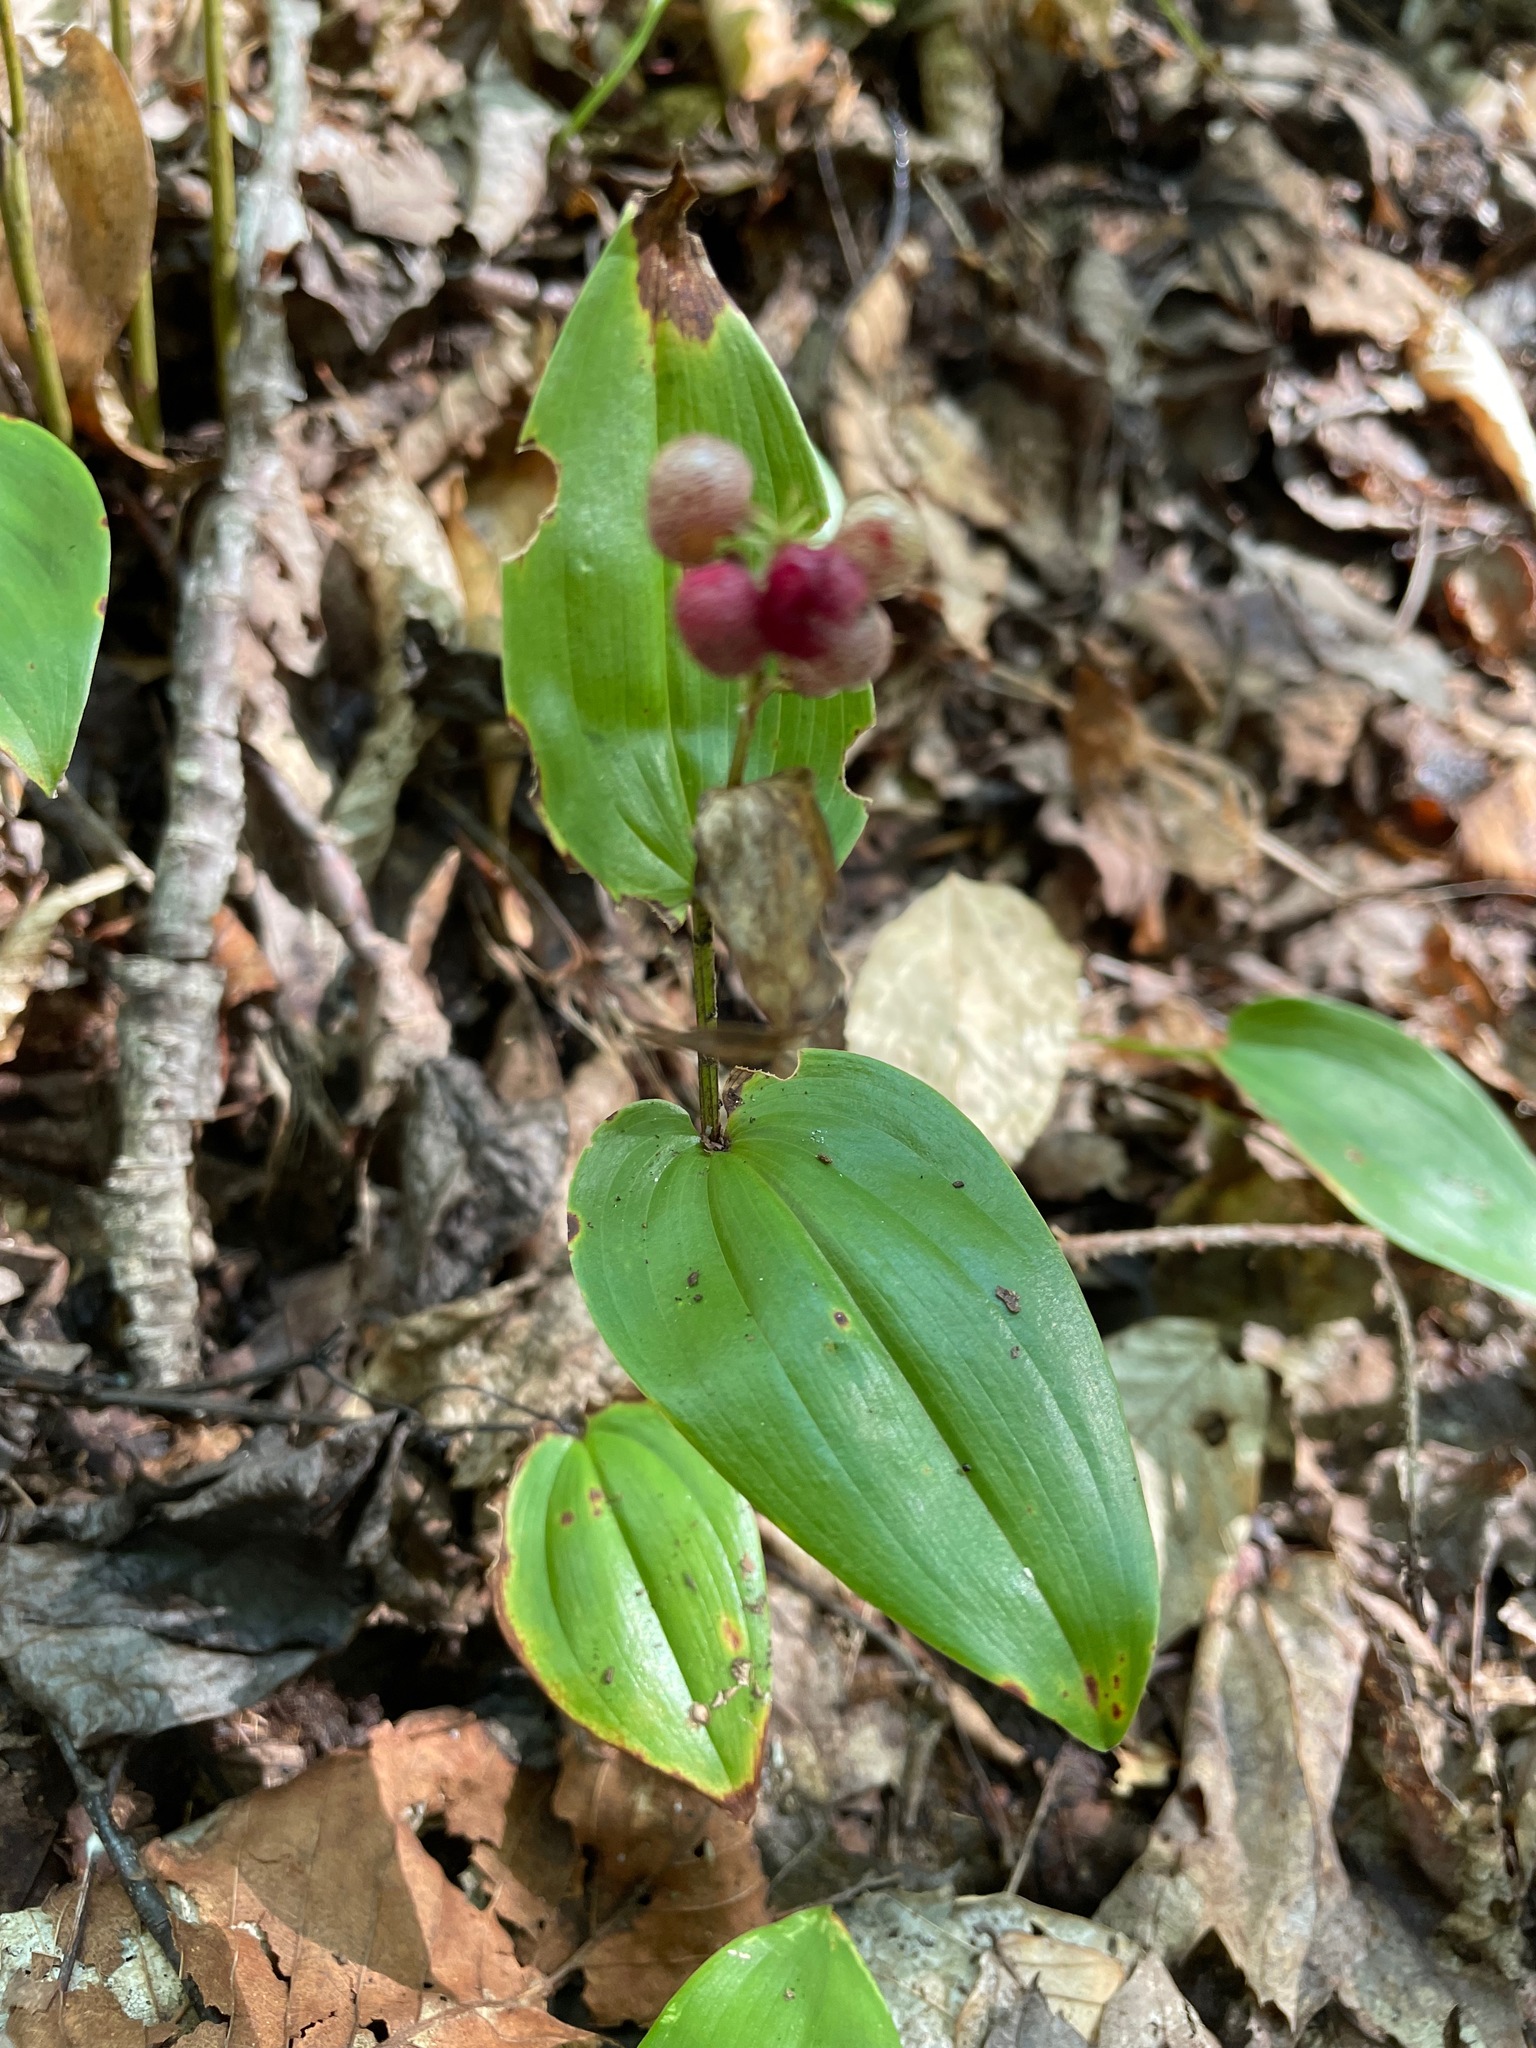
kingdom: Plantae
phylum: Tracheophyta
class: Liliopsida
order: Asparagales
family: Asparagaceae
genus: Maianthemum
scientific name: Maianthemum canadense
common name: False lily-of-the-valley
